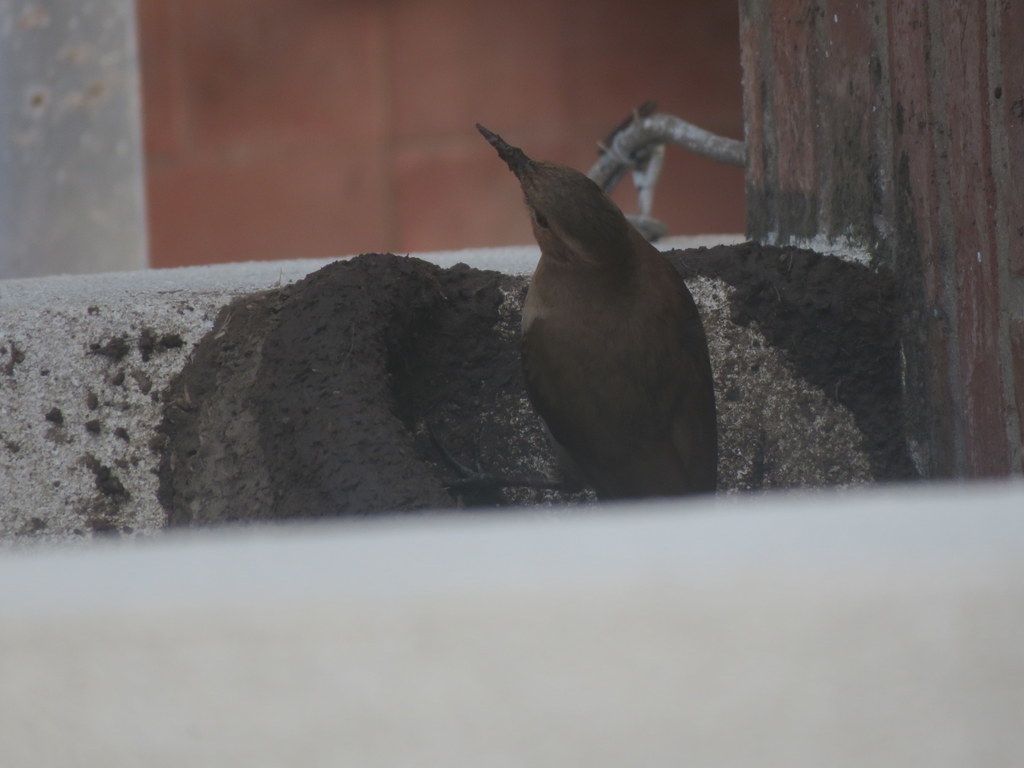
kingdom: Animalia
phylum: Chordata
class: Aves
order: Passeriformes
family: Furnariidae
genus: Furnarius
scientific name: Furnarius rufus
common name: Rufous hornero
